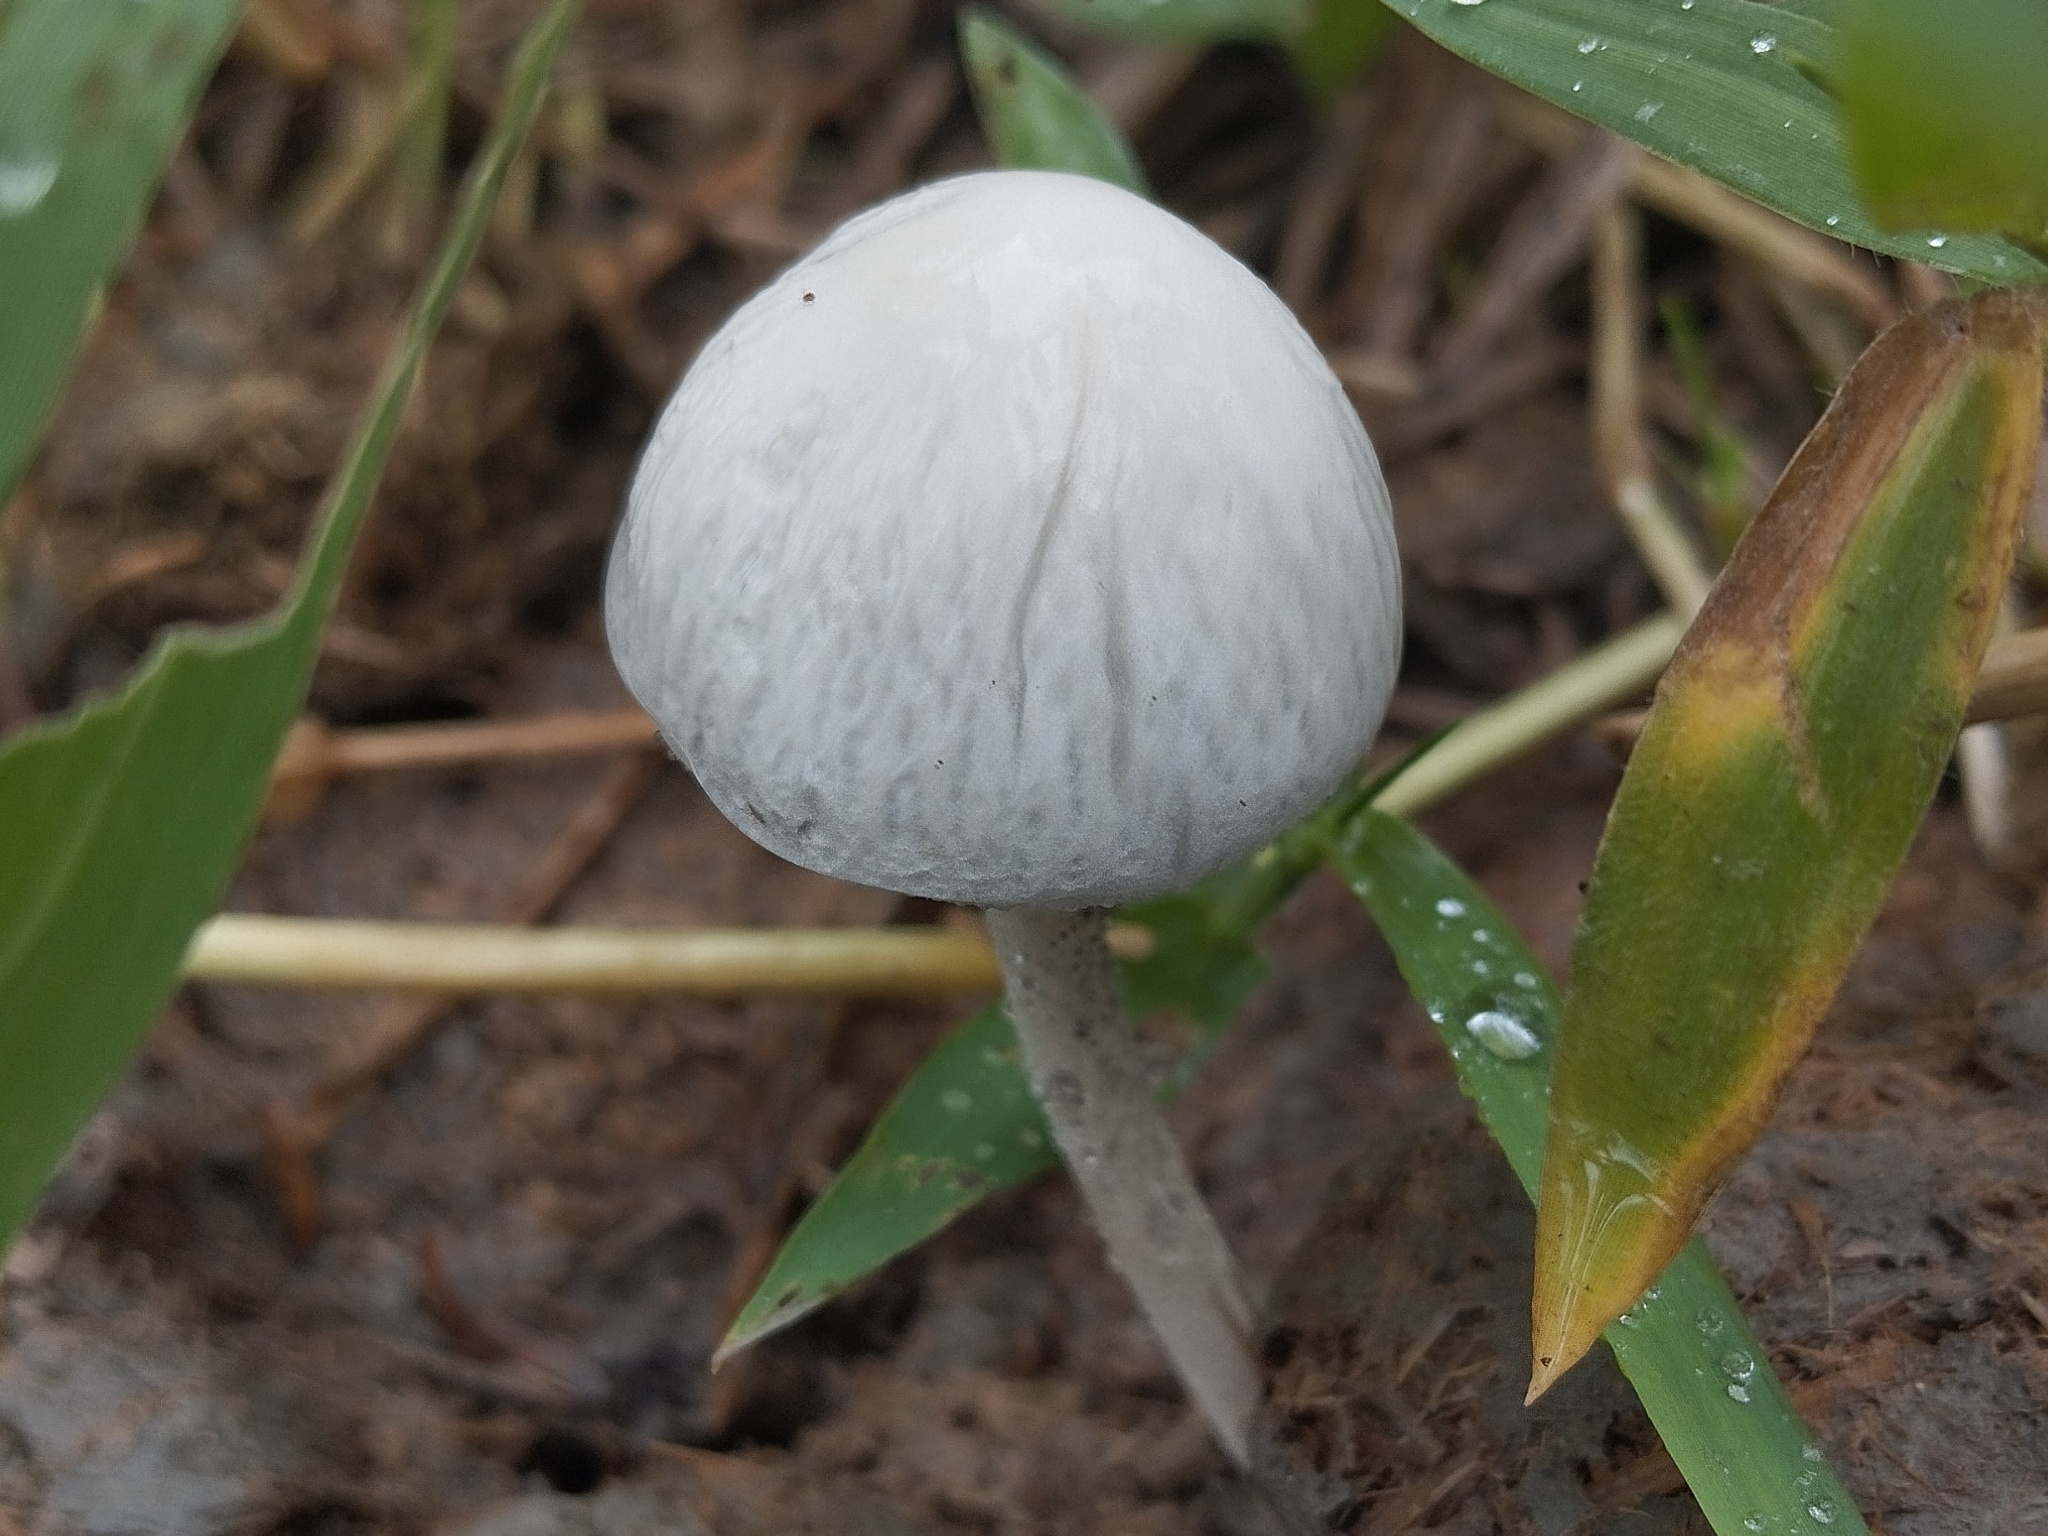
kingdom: Fungi
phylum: Basidiomycota
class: Agaricomycetes
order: Agaricales
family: Bolbitiaceae
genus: Panaeolus
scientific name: Panaeolus antillarum
